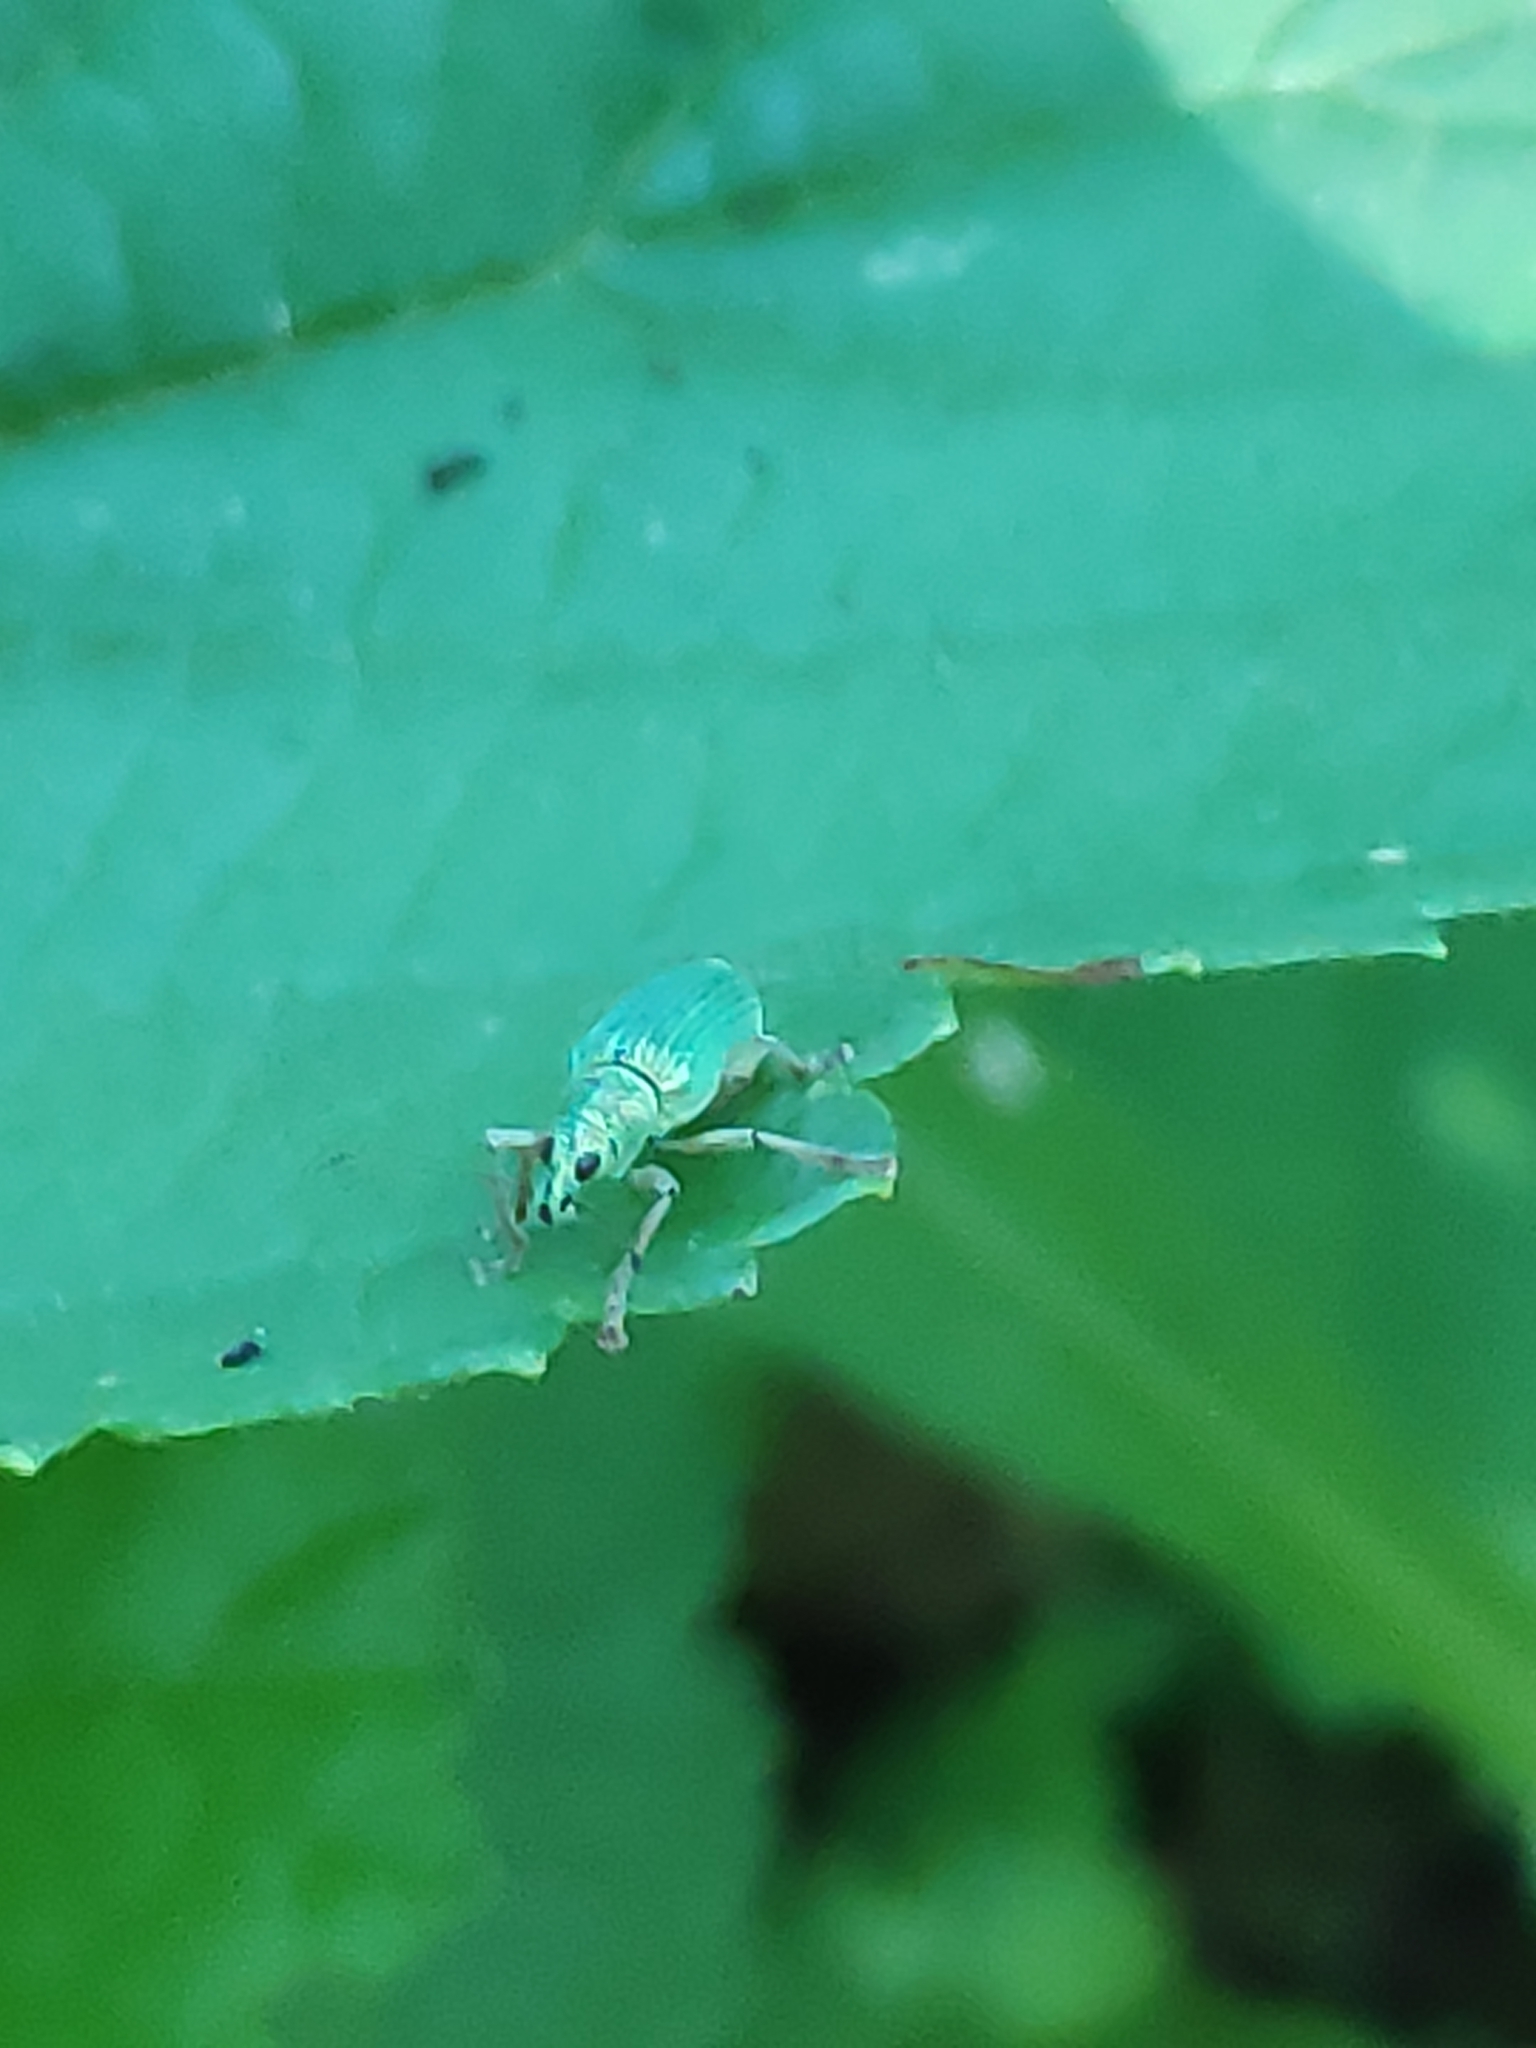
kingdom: Animalia
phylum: Arthropoda
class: Insecta
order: Coleoptera
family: Curculionidae
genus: Polydrusus
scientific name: Polydrusus formosus
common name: Weevil
